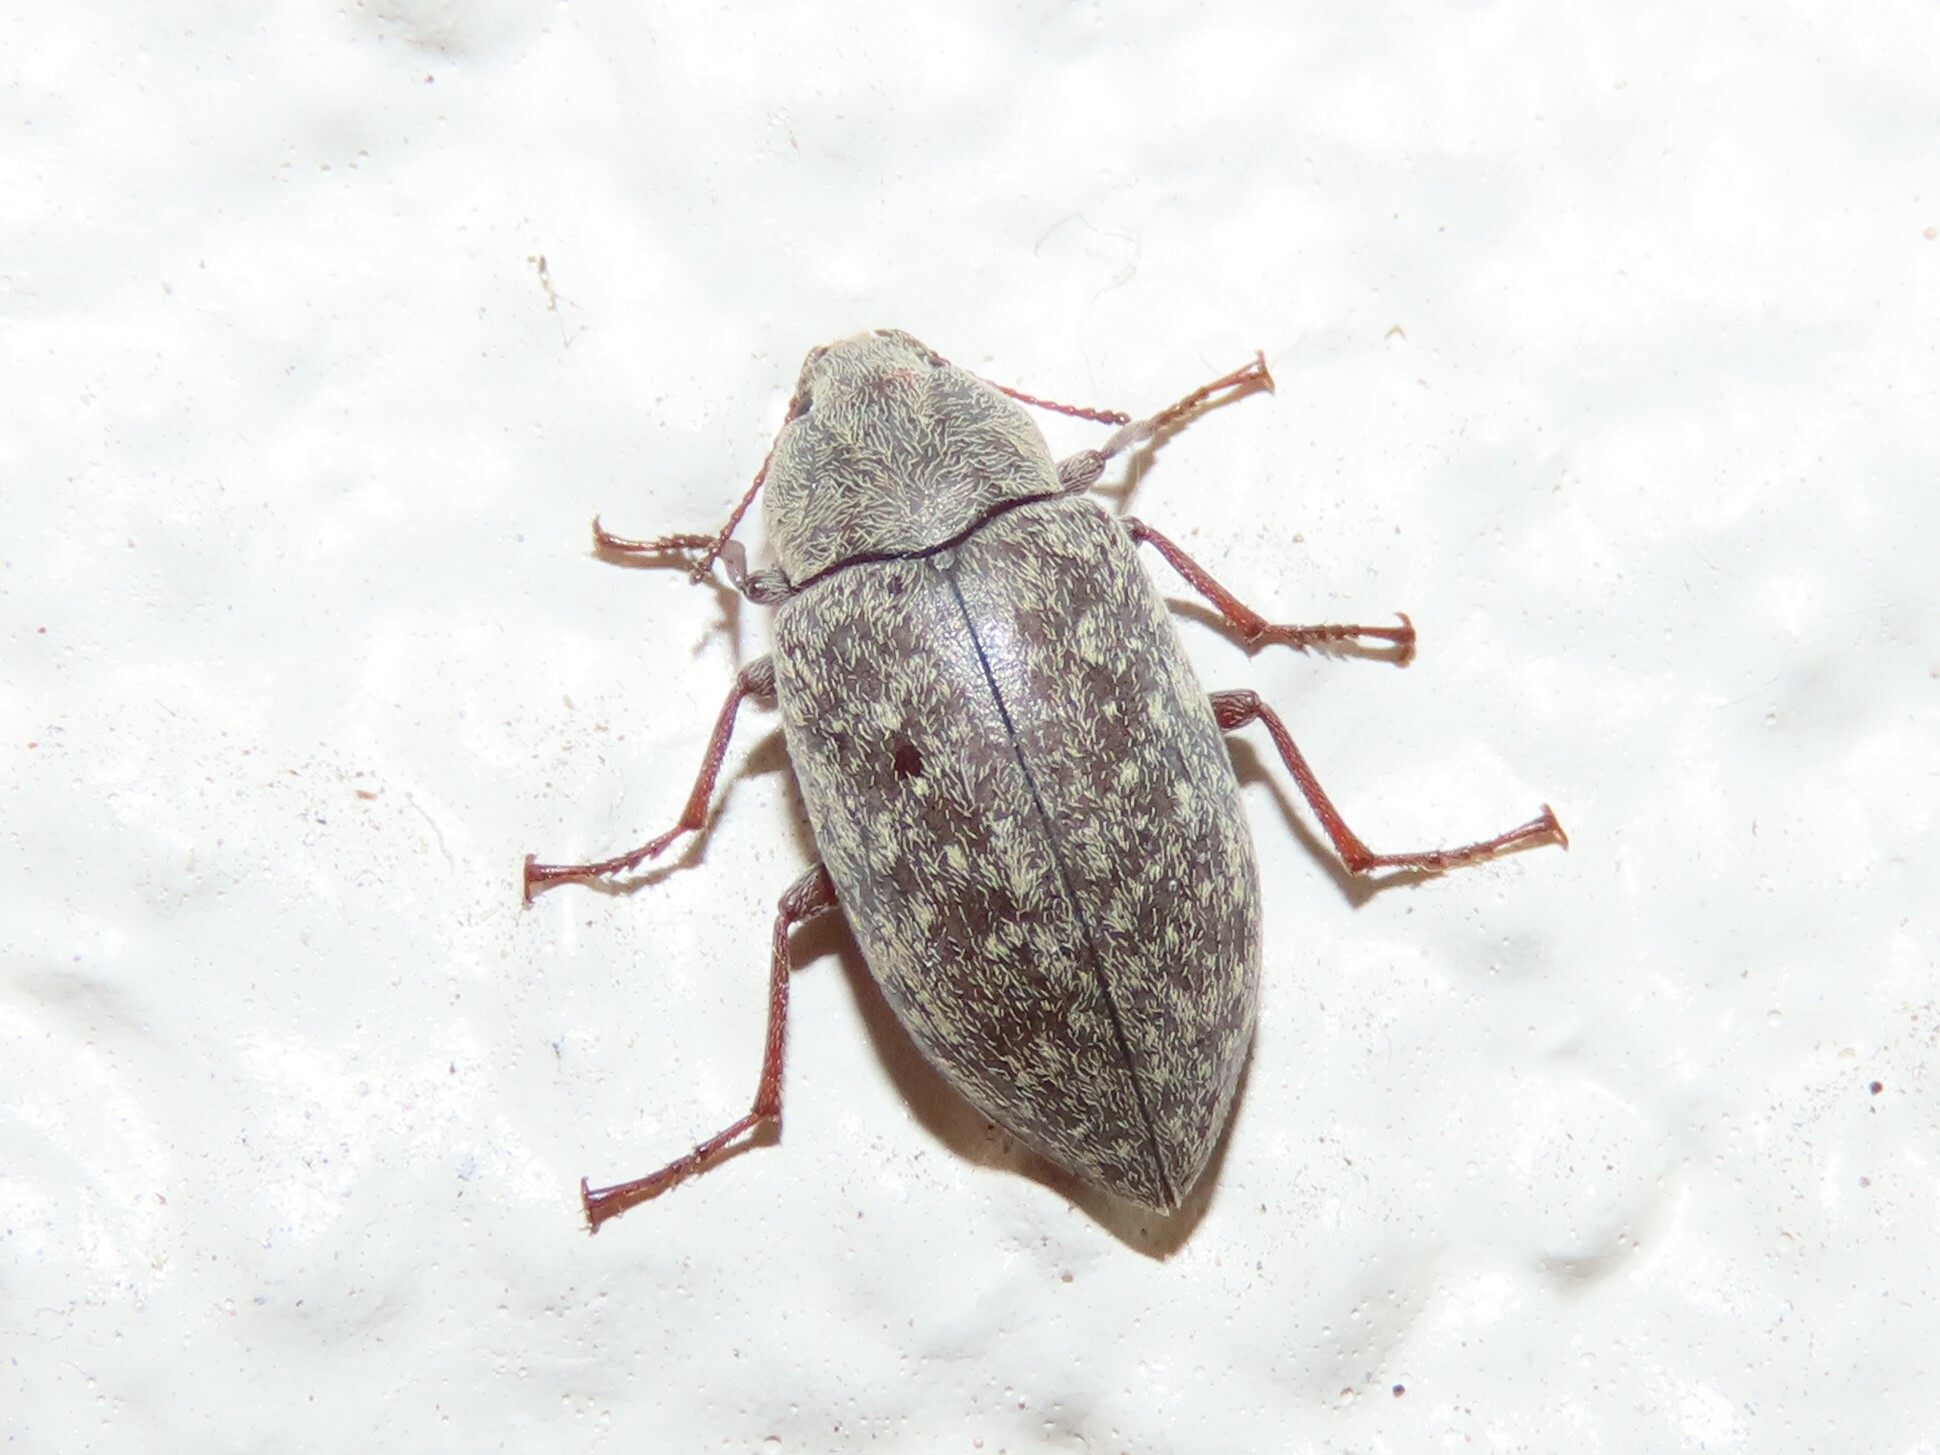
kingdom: Animalia
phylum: Arthropoda
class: Insecta
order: Coleoptera
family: Tenebrionidae
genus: Epitragodes
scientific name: Epitragodes tomentosus
